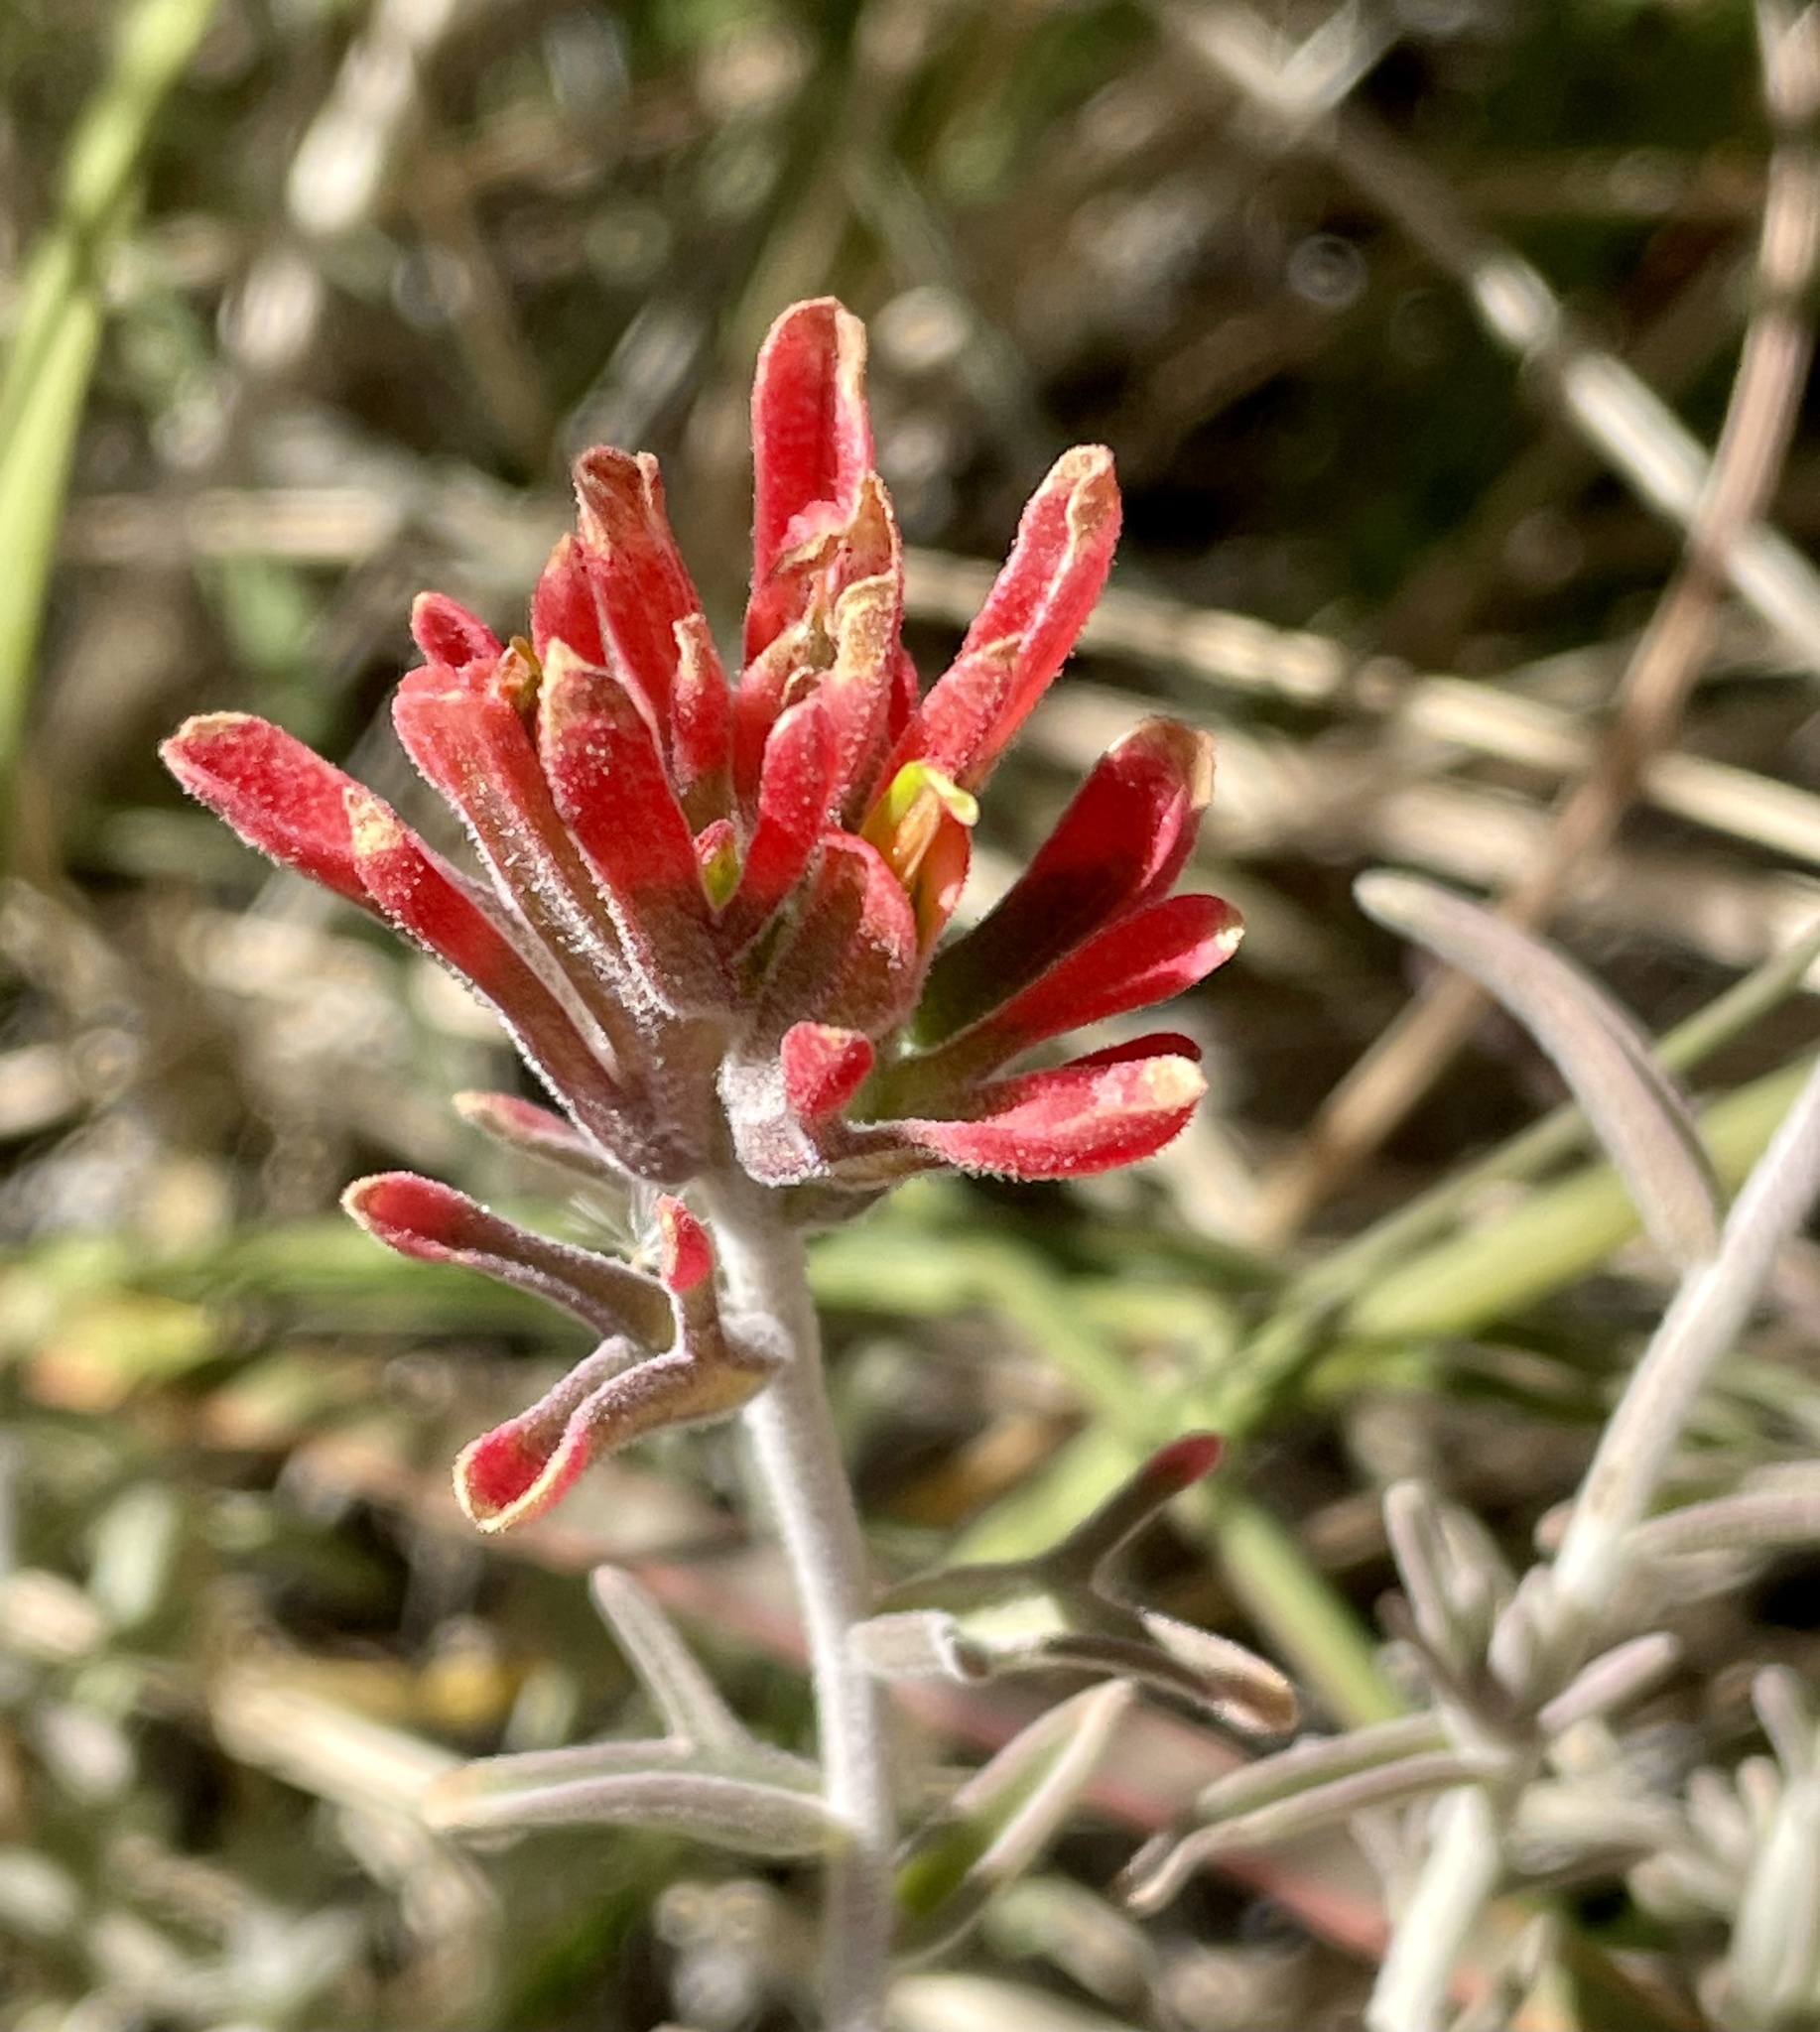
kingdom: Plantae
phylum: Tracheophyta
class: Magnoliopsida
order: Lamiales
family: Orobanchaceae
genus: Castilleja
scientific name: Castilleja foliolosa
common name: Woolly indian paintbrush
